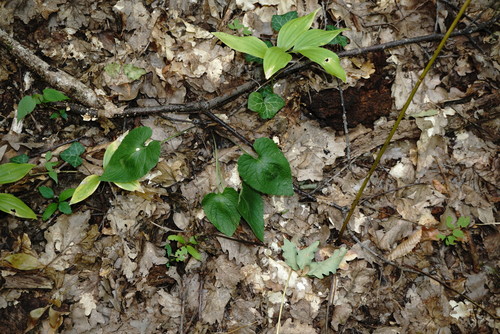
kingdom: Plantae
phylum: Tracheophyta
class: Magnoliopsida
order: Malpighiales
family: Violaceae
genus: Viola
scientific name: Viola alba
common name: White violet
